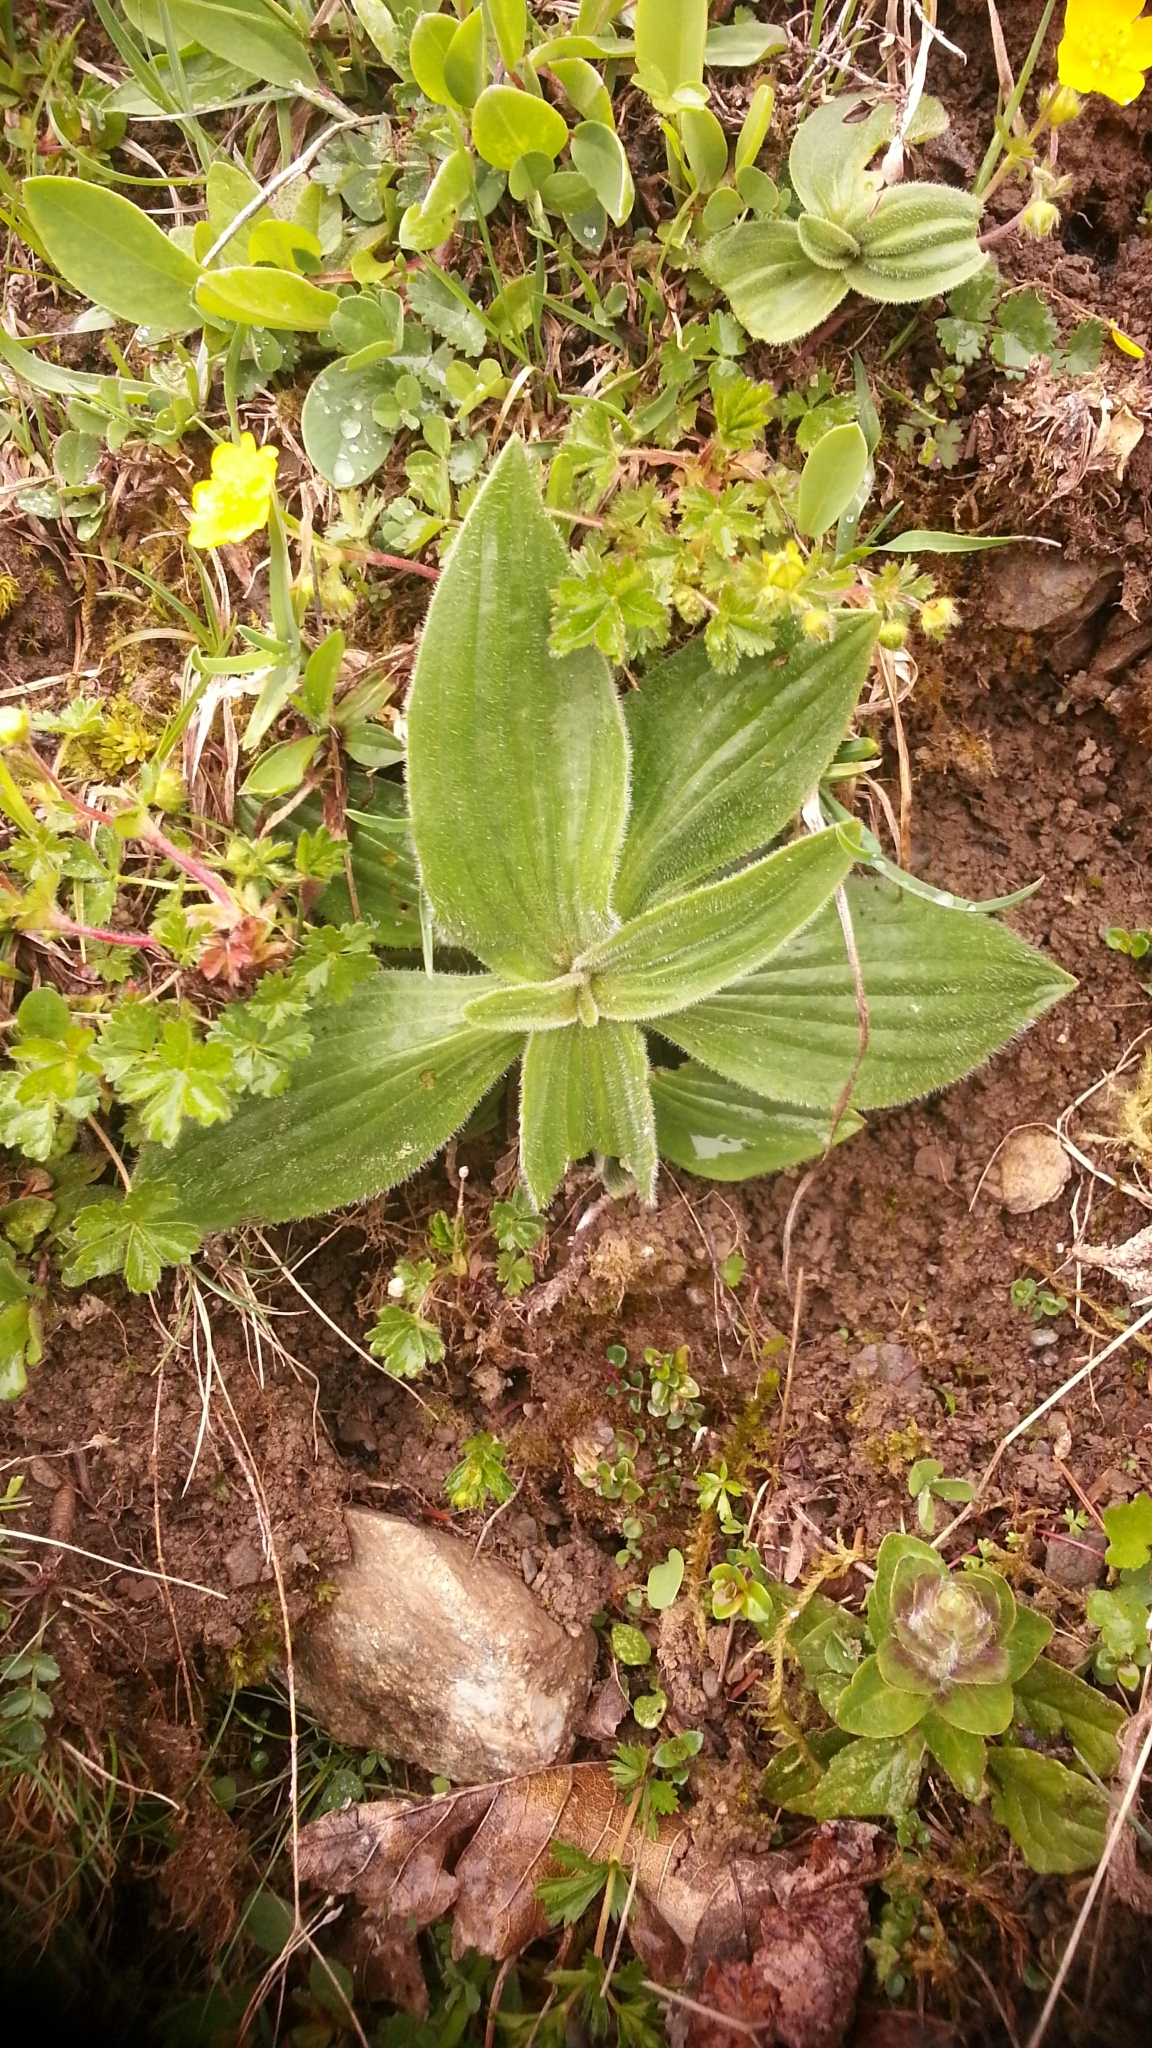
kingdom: Plantae
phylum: Tracheophyta
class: Magnoliopsida
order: Lamiales
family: Plantaginaceae
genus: Plantago
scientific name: Plantago media
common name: Hoary plantain
